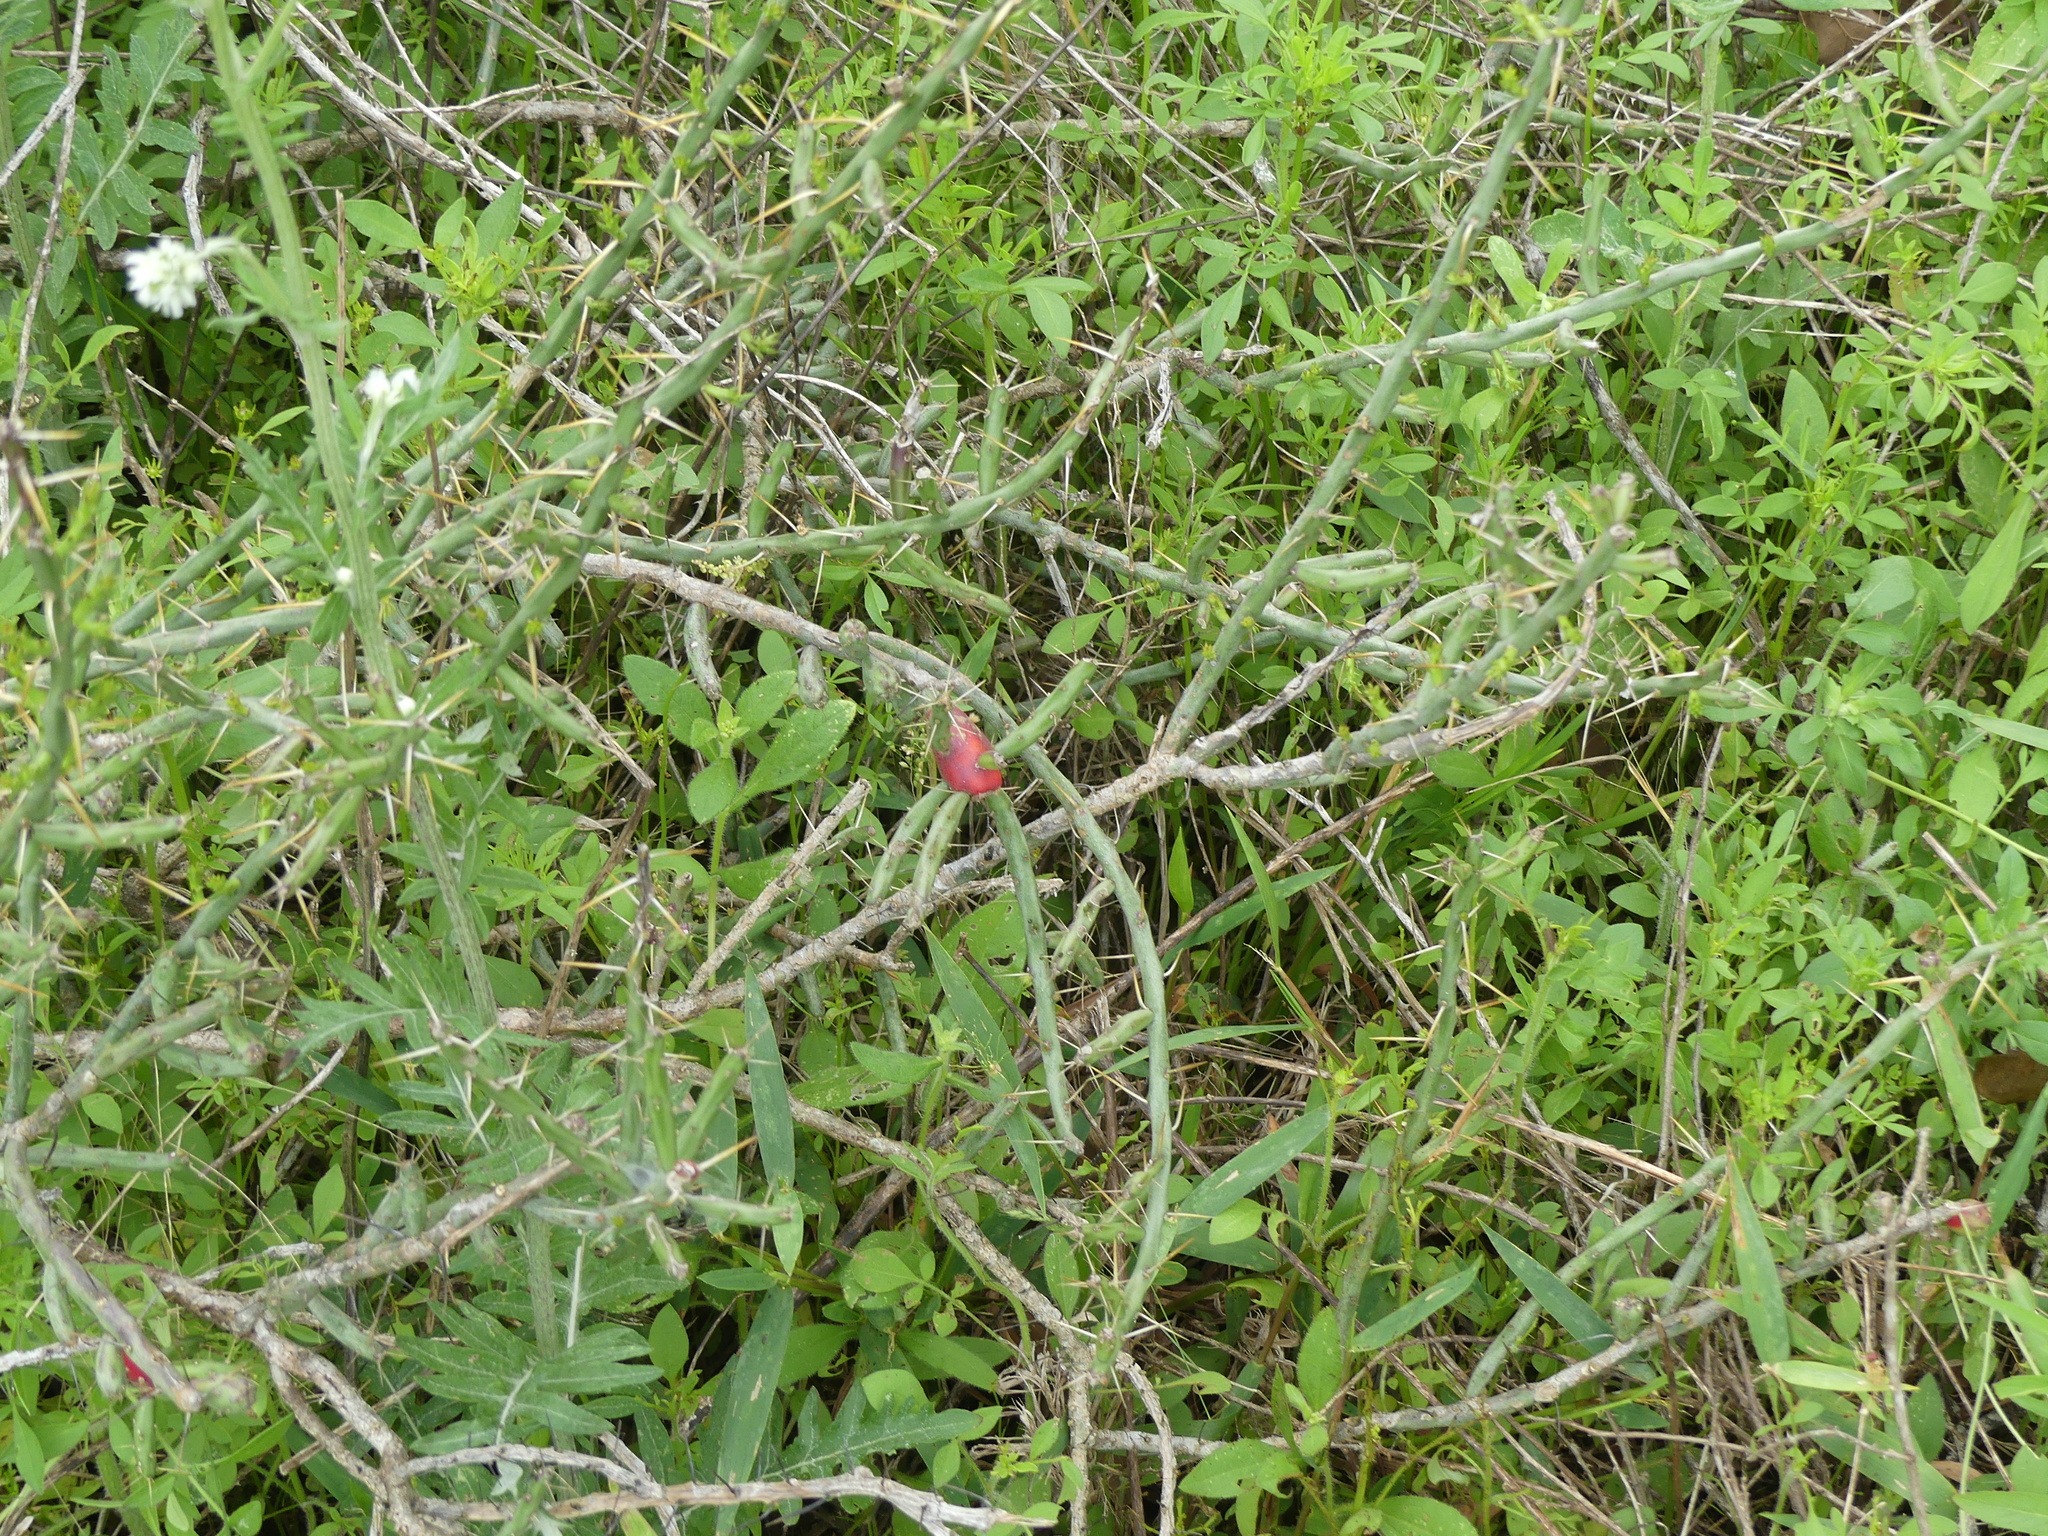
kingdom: Plantae
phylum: Tracheophyta
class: Magnoliopsida
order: Caryophyllales
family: Cactaceae
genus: Cylindropuntia
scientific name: Cylindropuntia leptocaulis
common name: Christmas cactus
